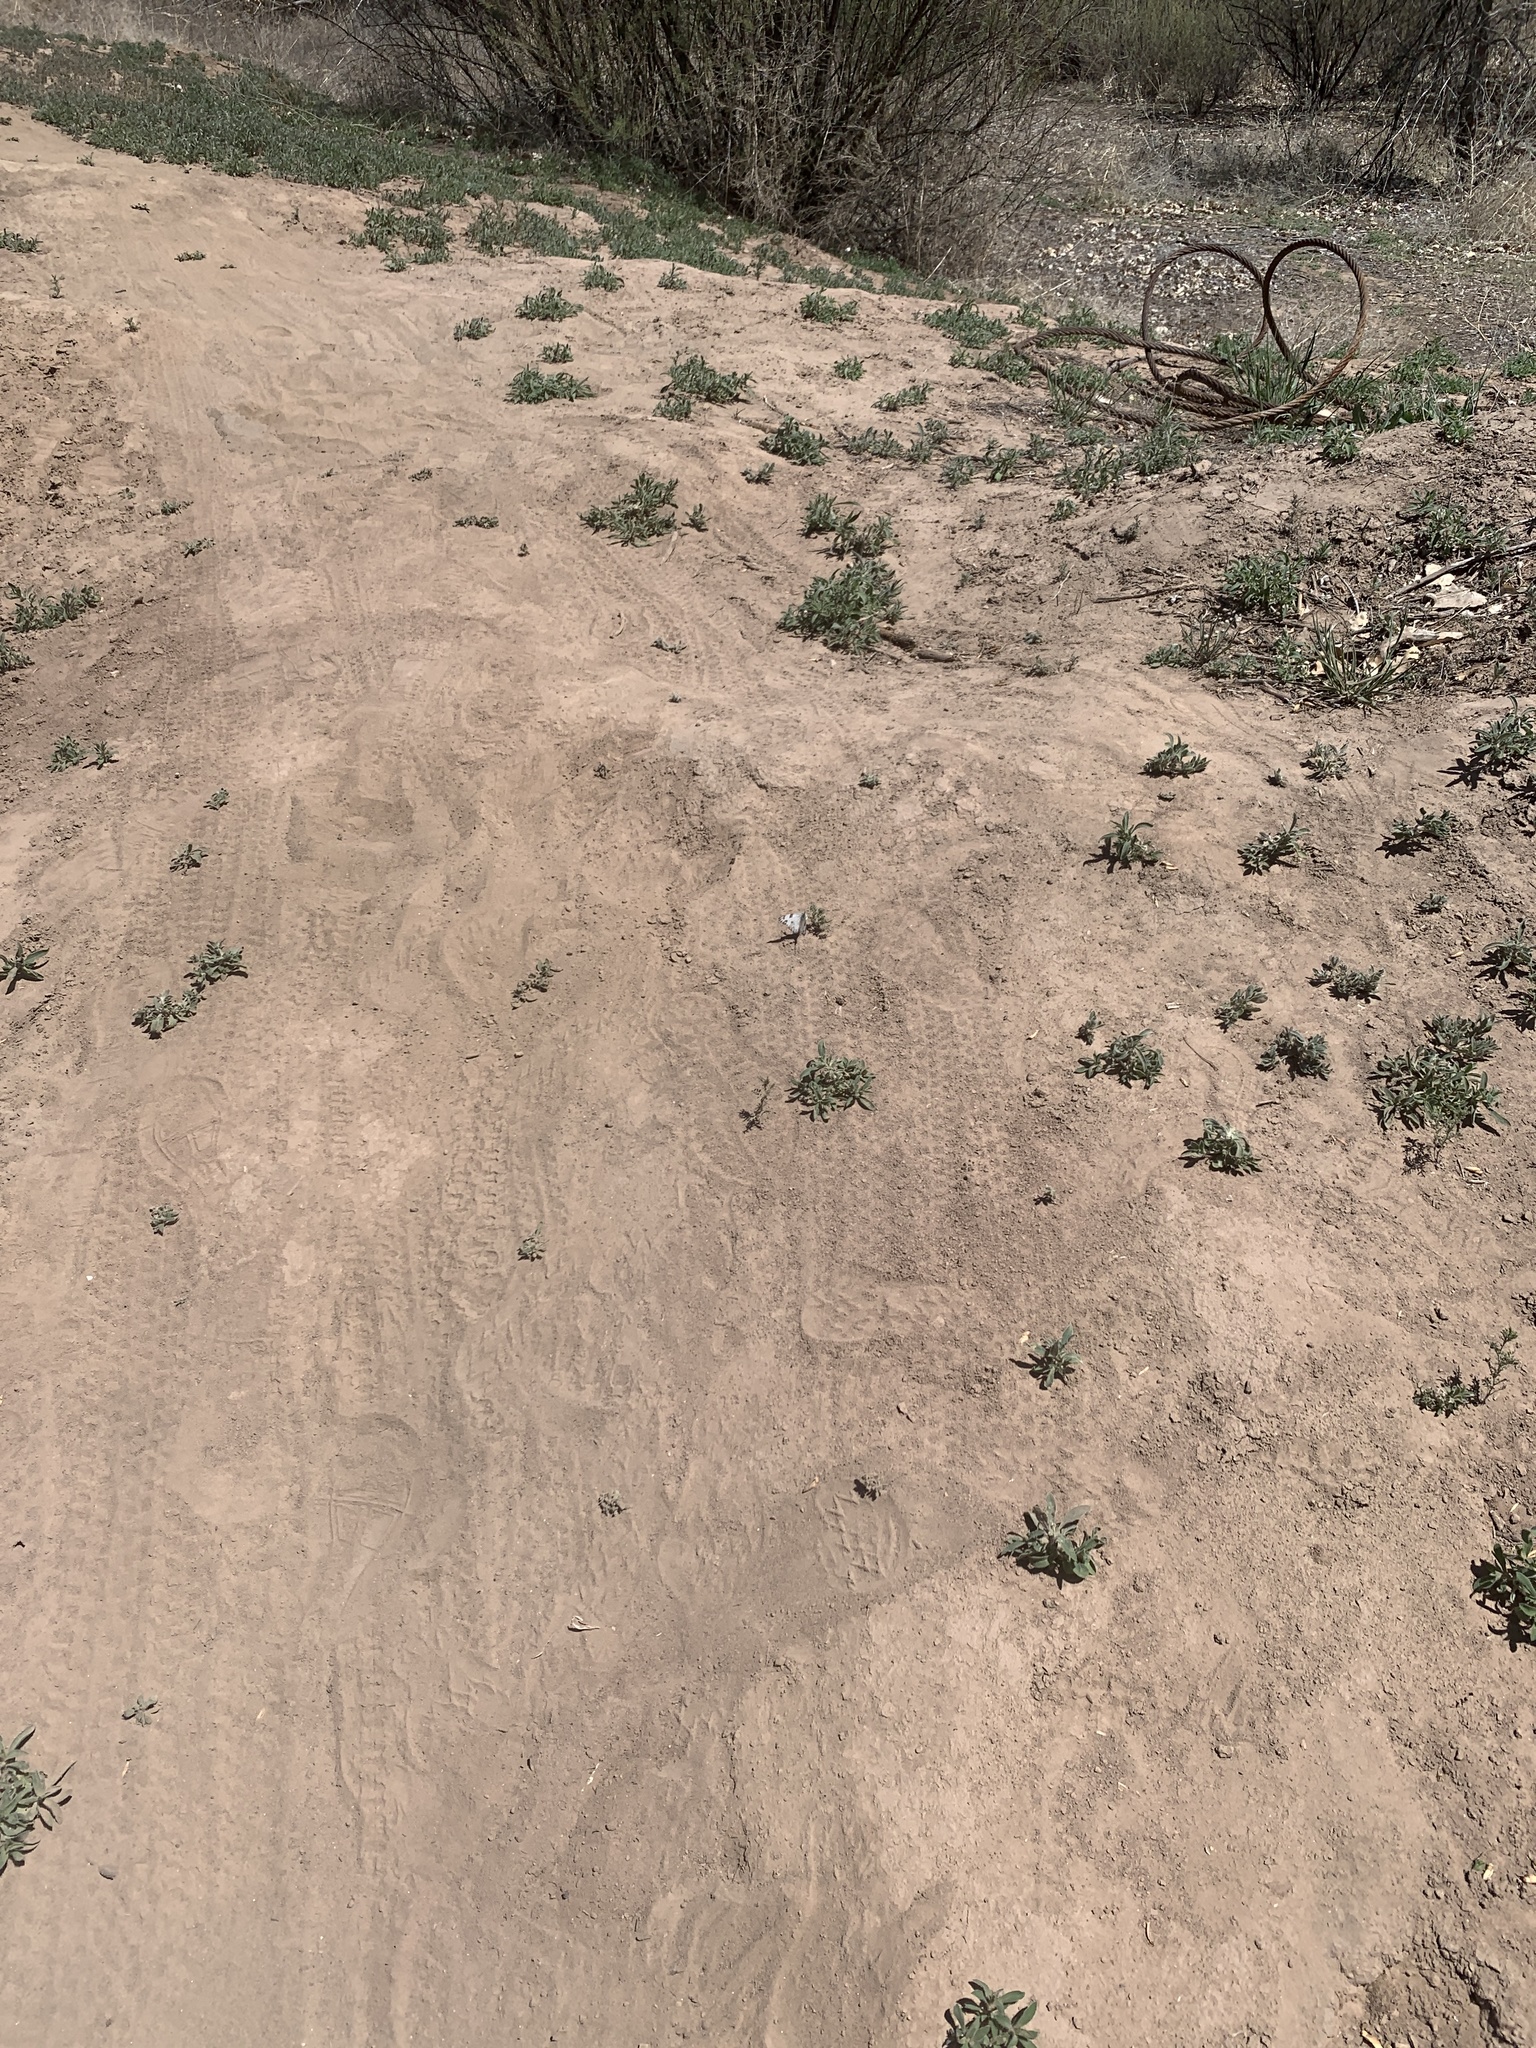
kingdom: Animalia
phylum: Arthropoda
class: Insecta
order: Lepidoptera
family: Pieridae
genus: Pontia
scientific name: Pontia protodice
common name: Checkered white
